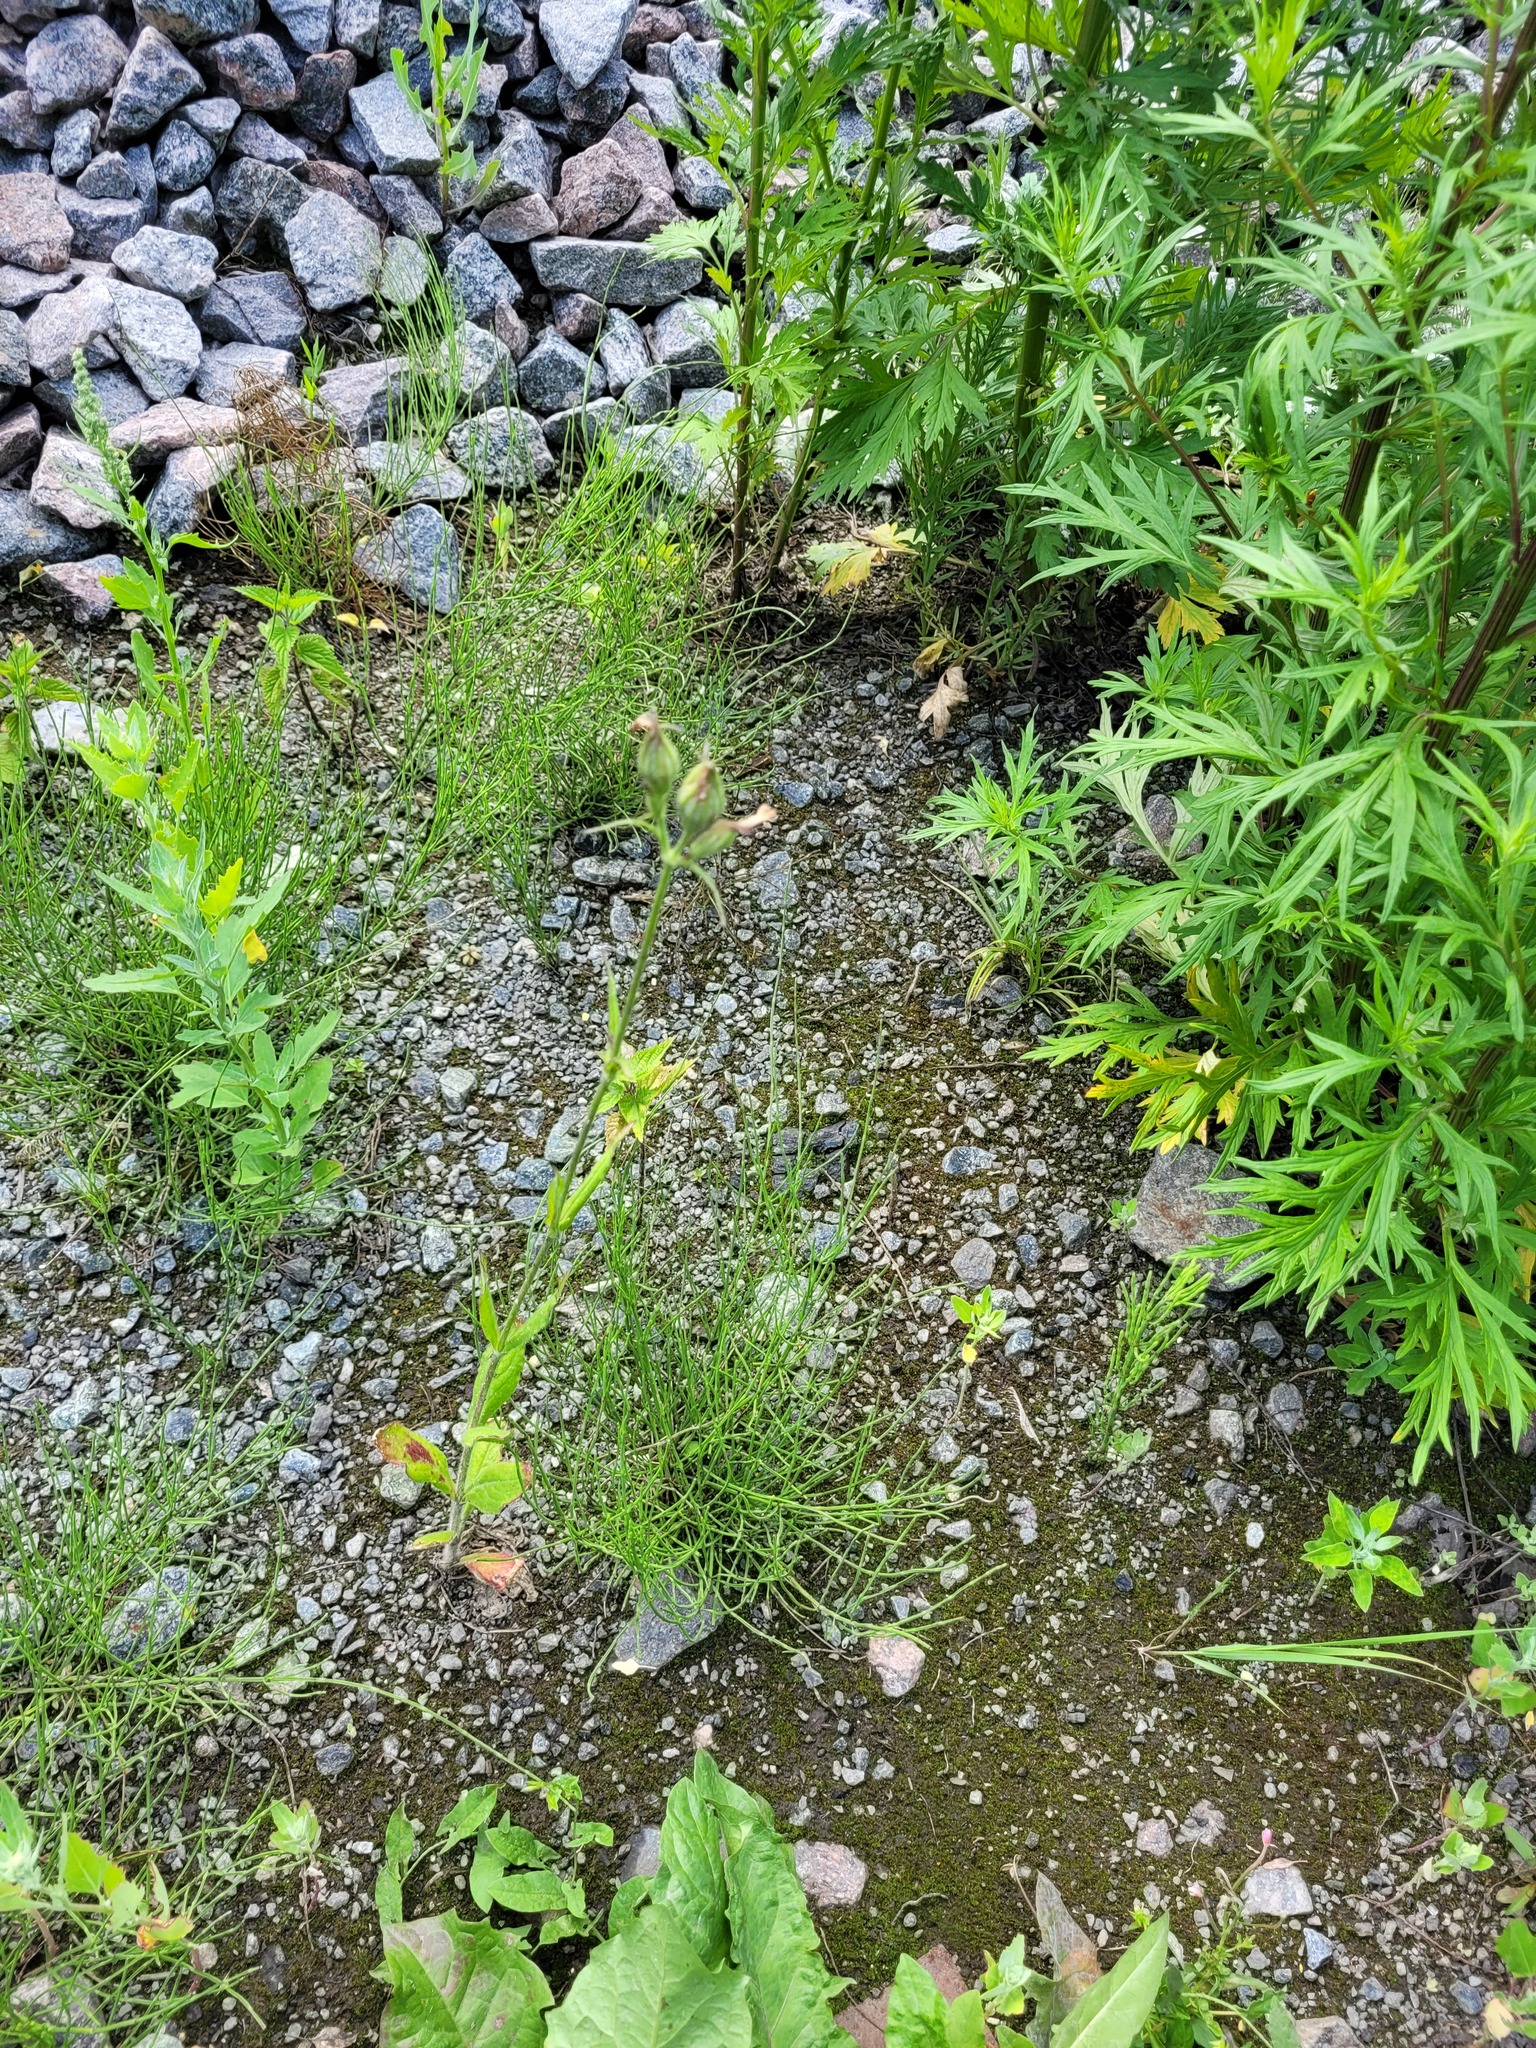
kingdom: Plantae
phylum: Tracheophyta
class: Magnoliopsida
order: Caryophyllales
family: Caryophyllaceae
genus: Silene
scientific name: Silene noctiflora
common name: Night-flowering catchfly
